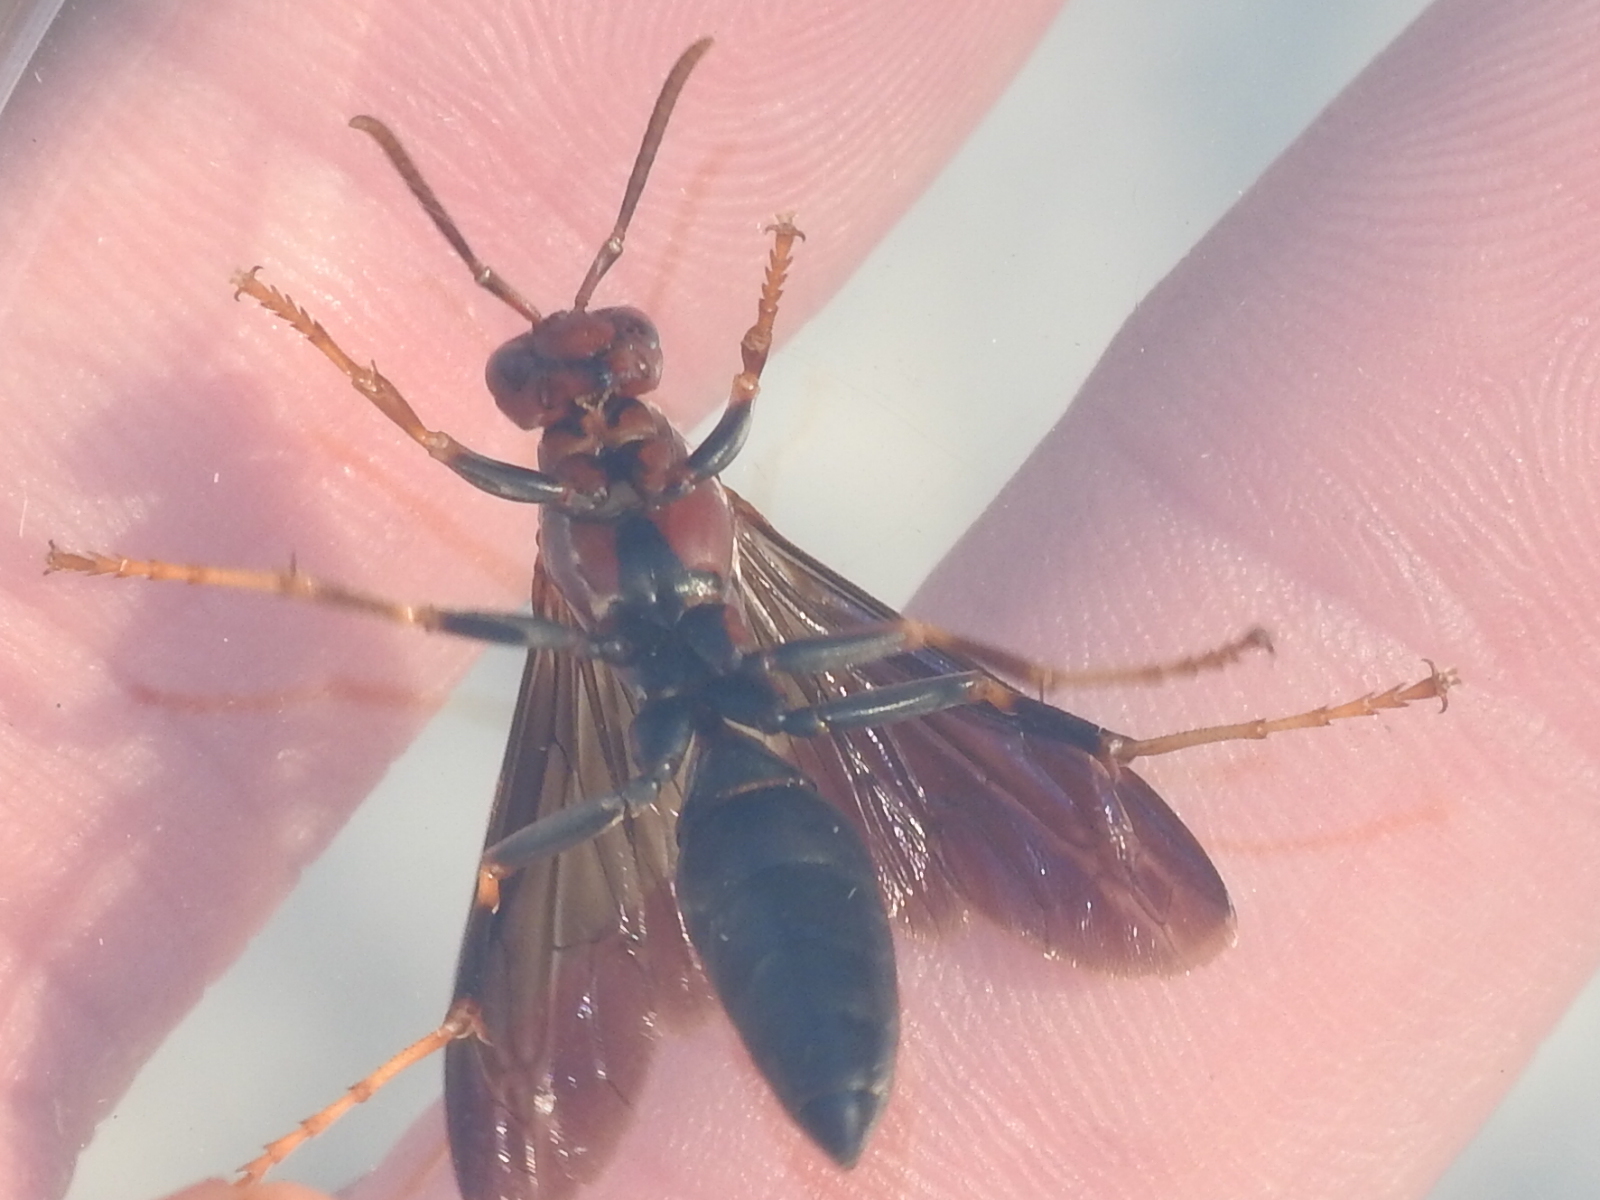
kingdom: Animalia
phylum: Arthropoda
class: Insecta
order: Hymenoptera
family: Eumenidae
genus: Polistes
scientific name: Polistes metricus
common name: Metric paper wasp
